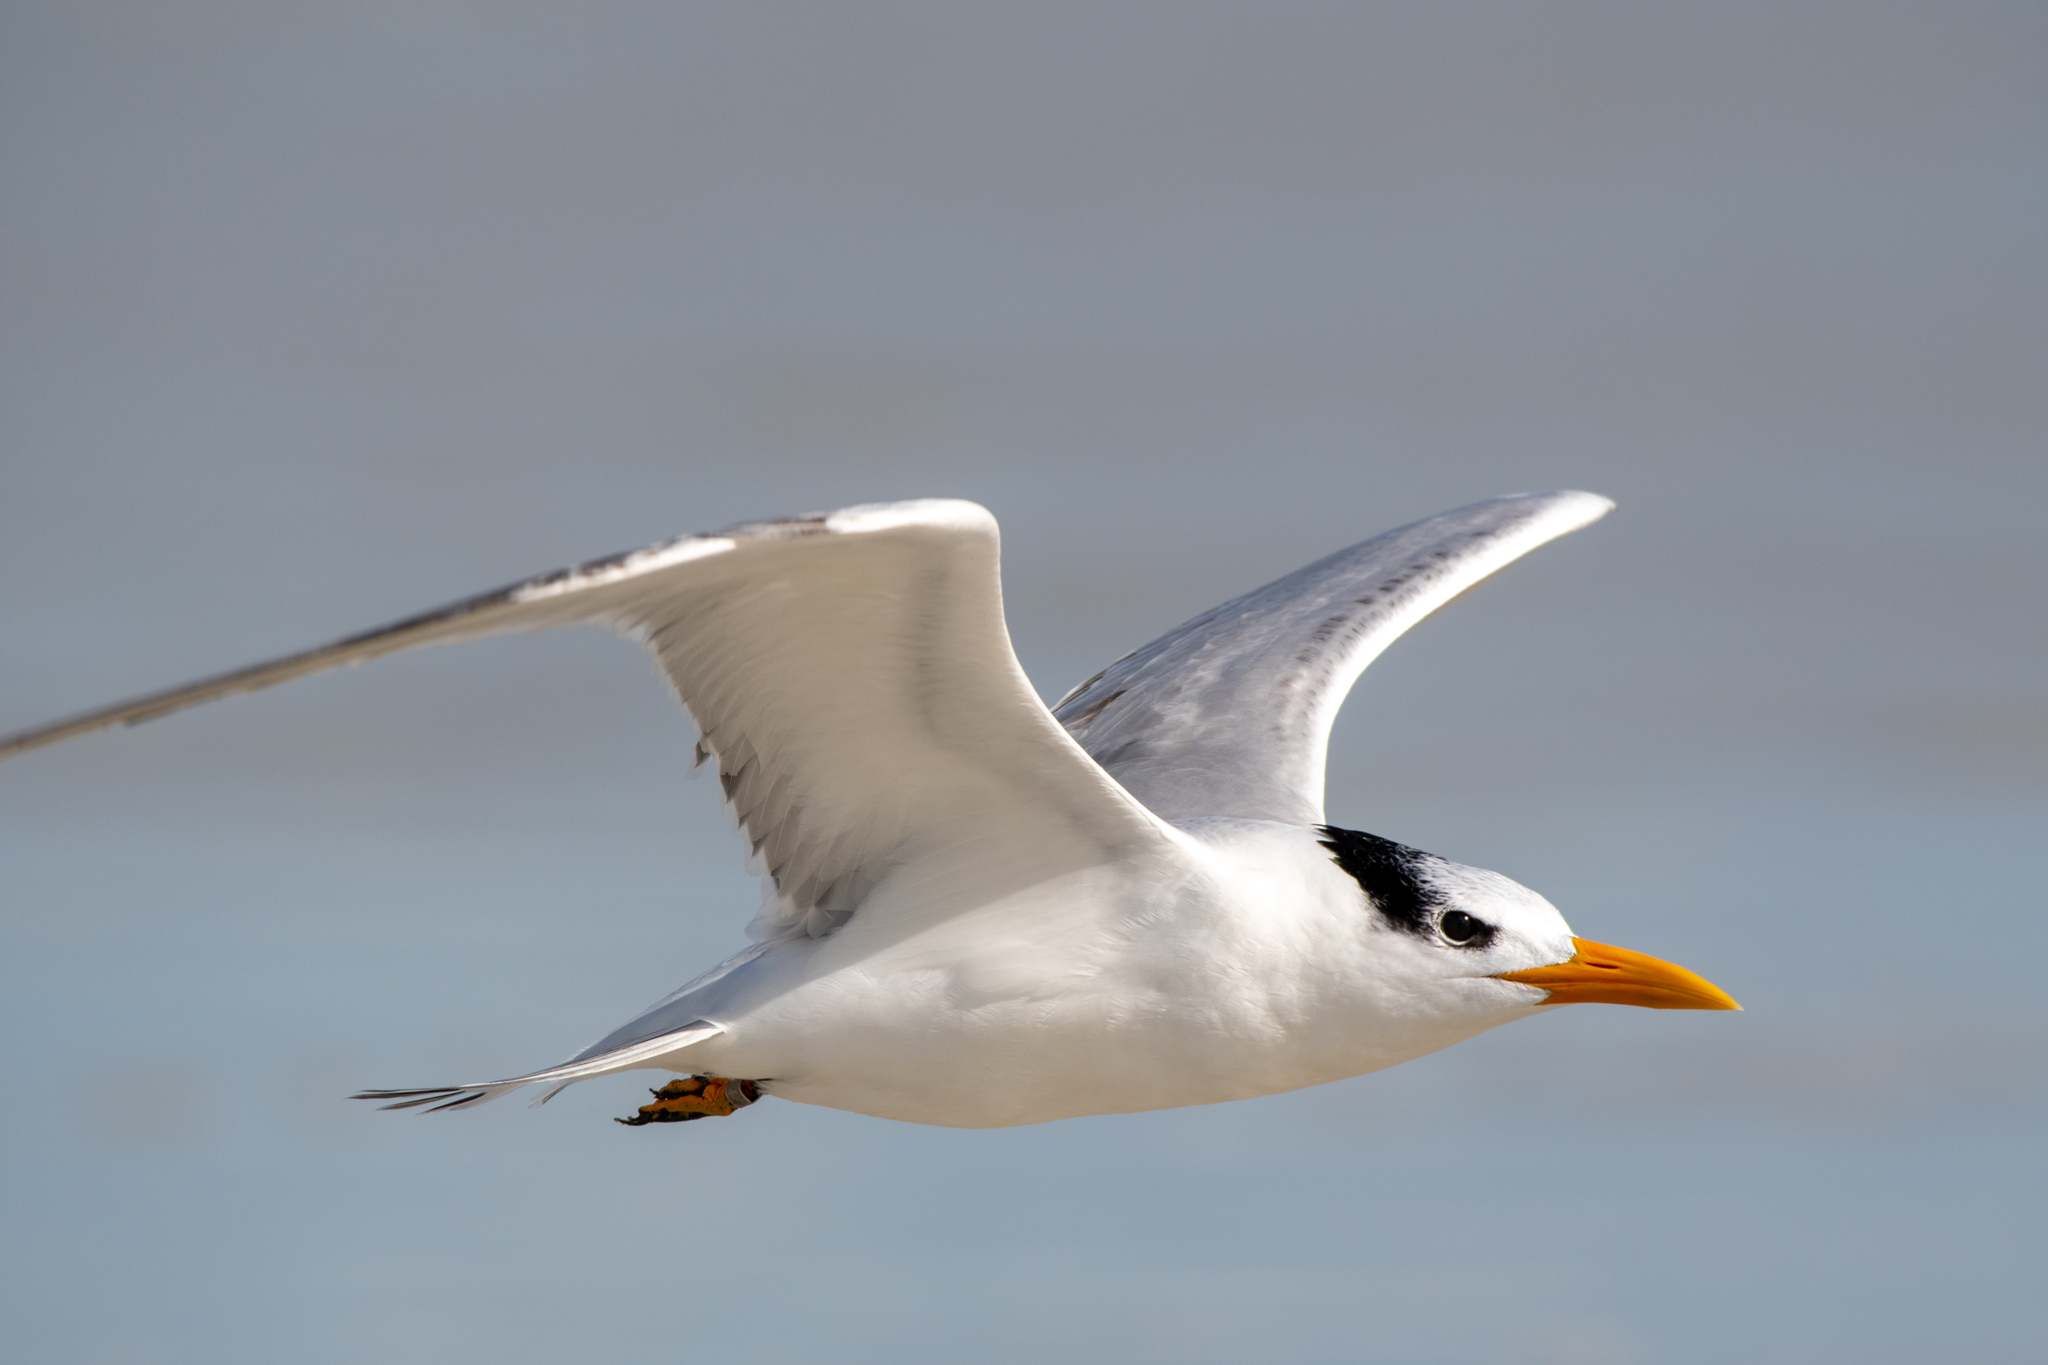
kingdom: Animalia
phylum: Chordata
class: Aves
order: Charadriiformes
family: Laridae
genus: Thalasseus
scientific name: Thalasseus maximus
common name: Royal tern
